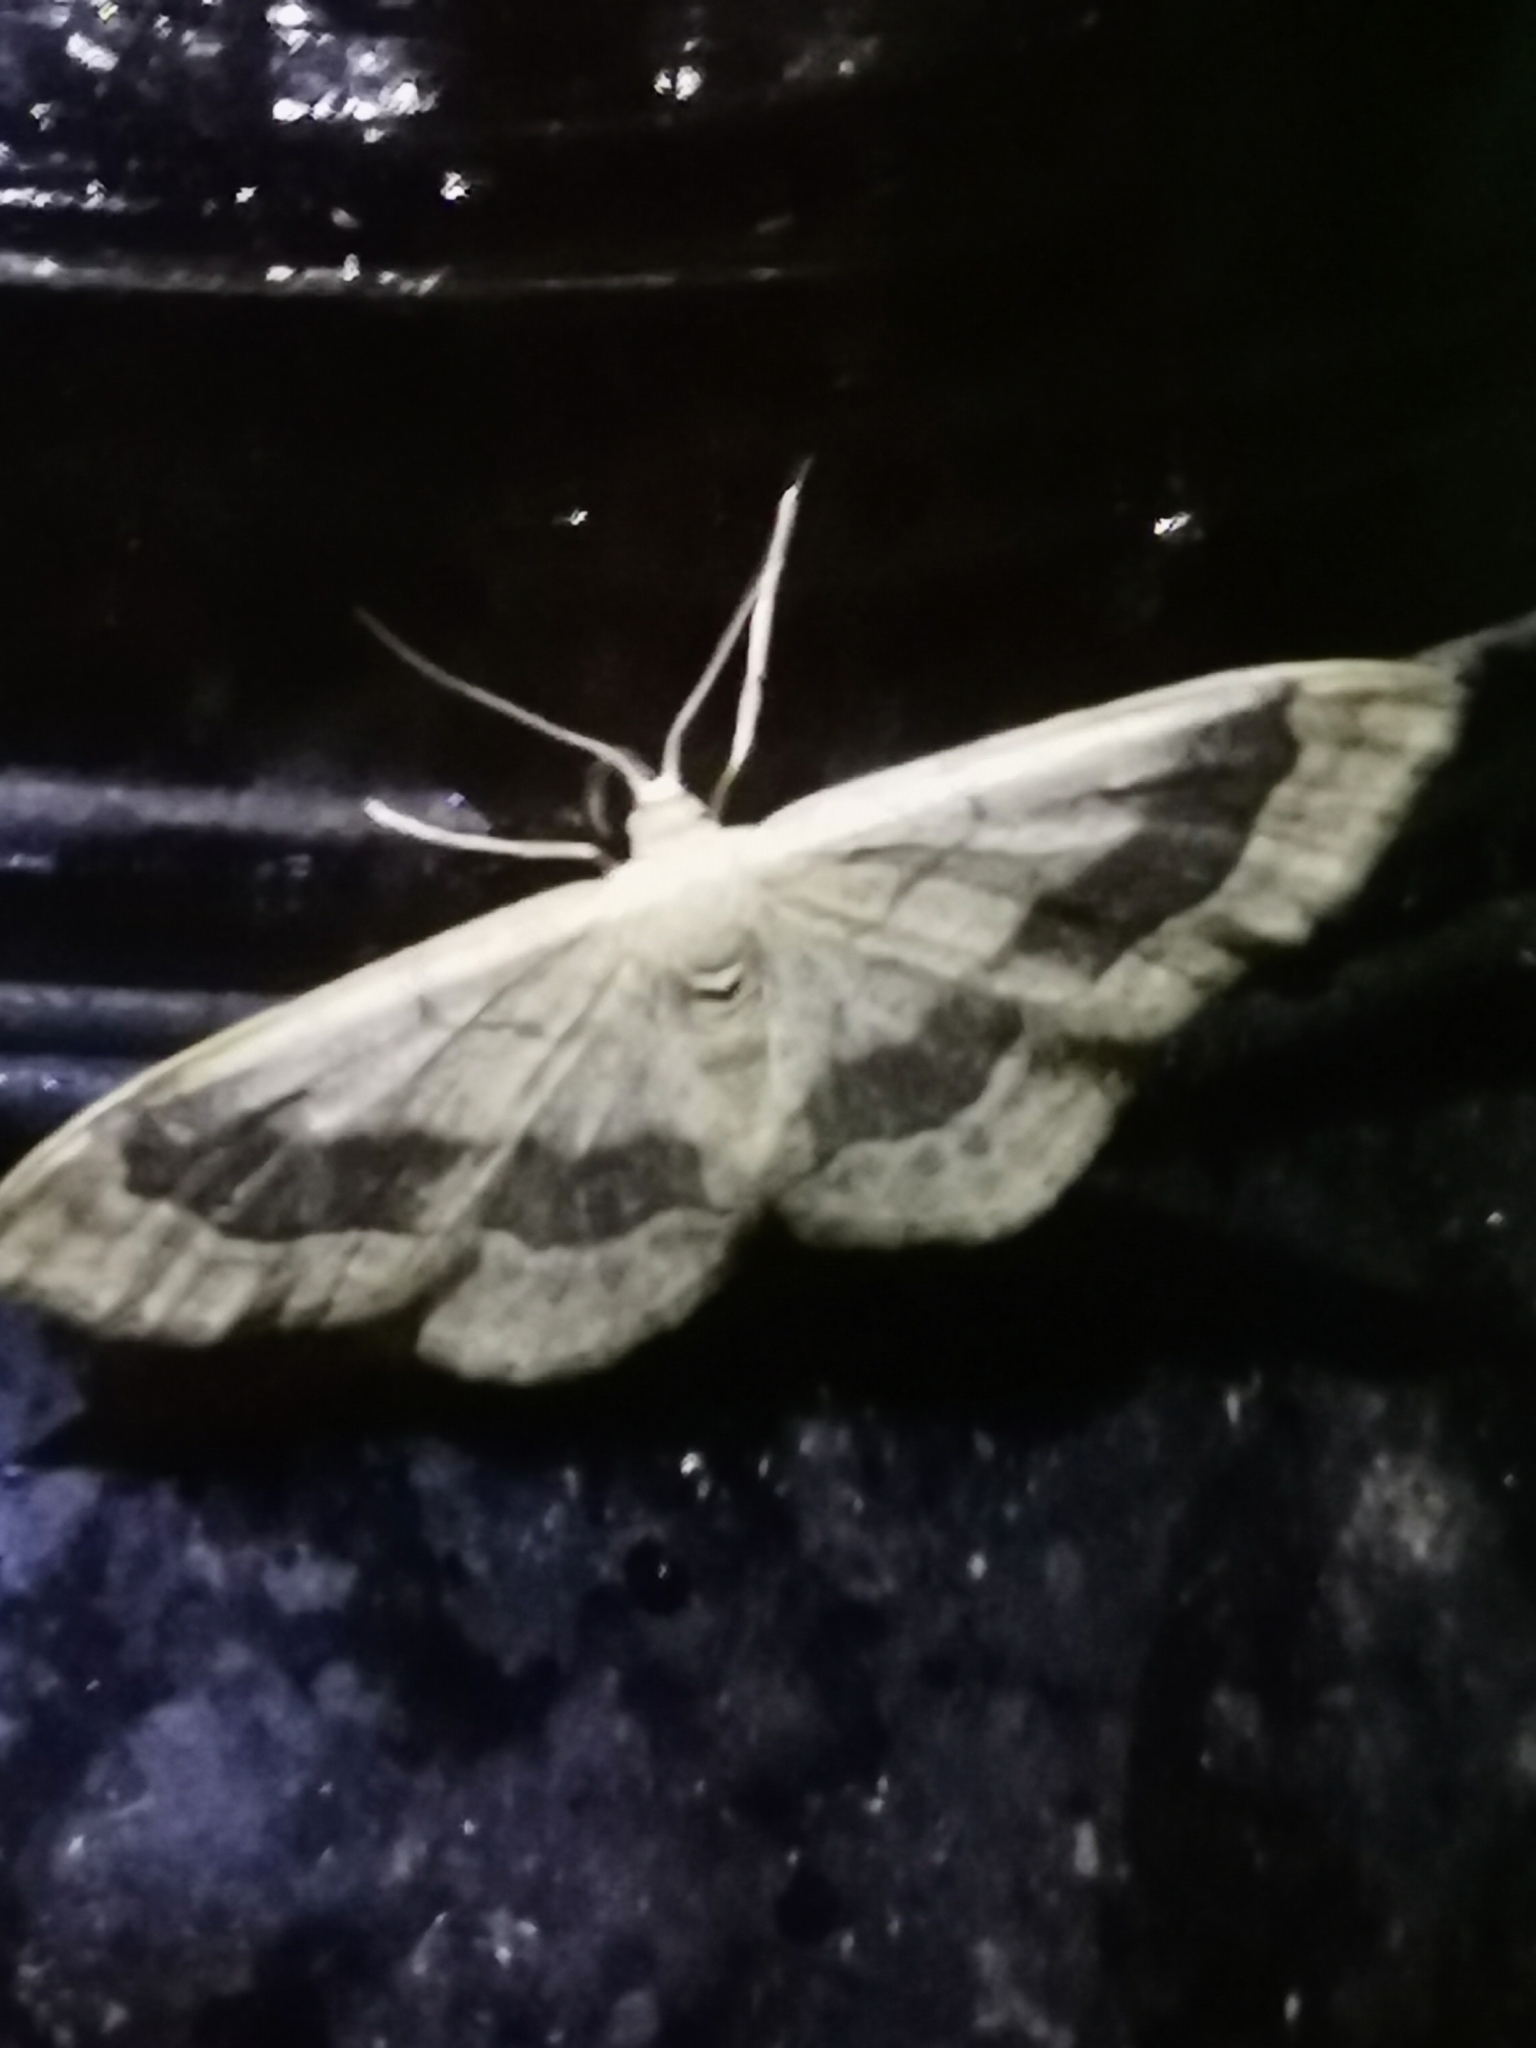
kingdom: Animalia
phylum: Arthropoda
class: Insecta
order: Lepidoptera
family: Geometridae
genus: Idaea
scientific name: Idaea aversata
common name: Riband wave
